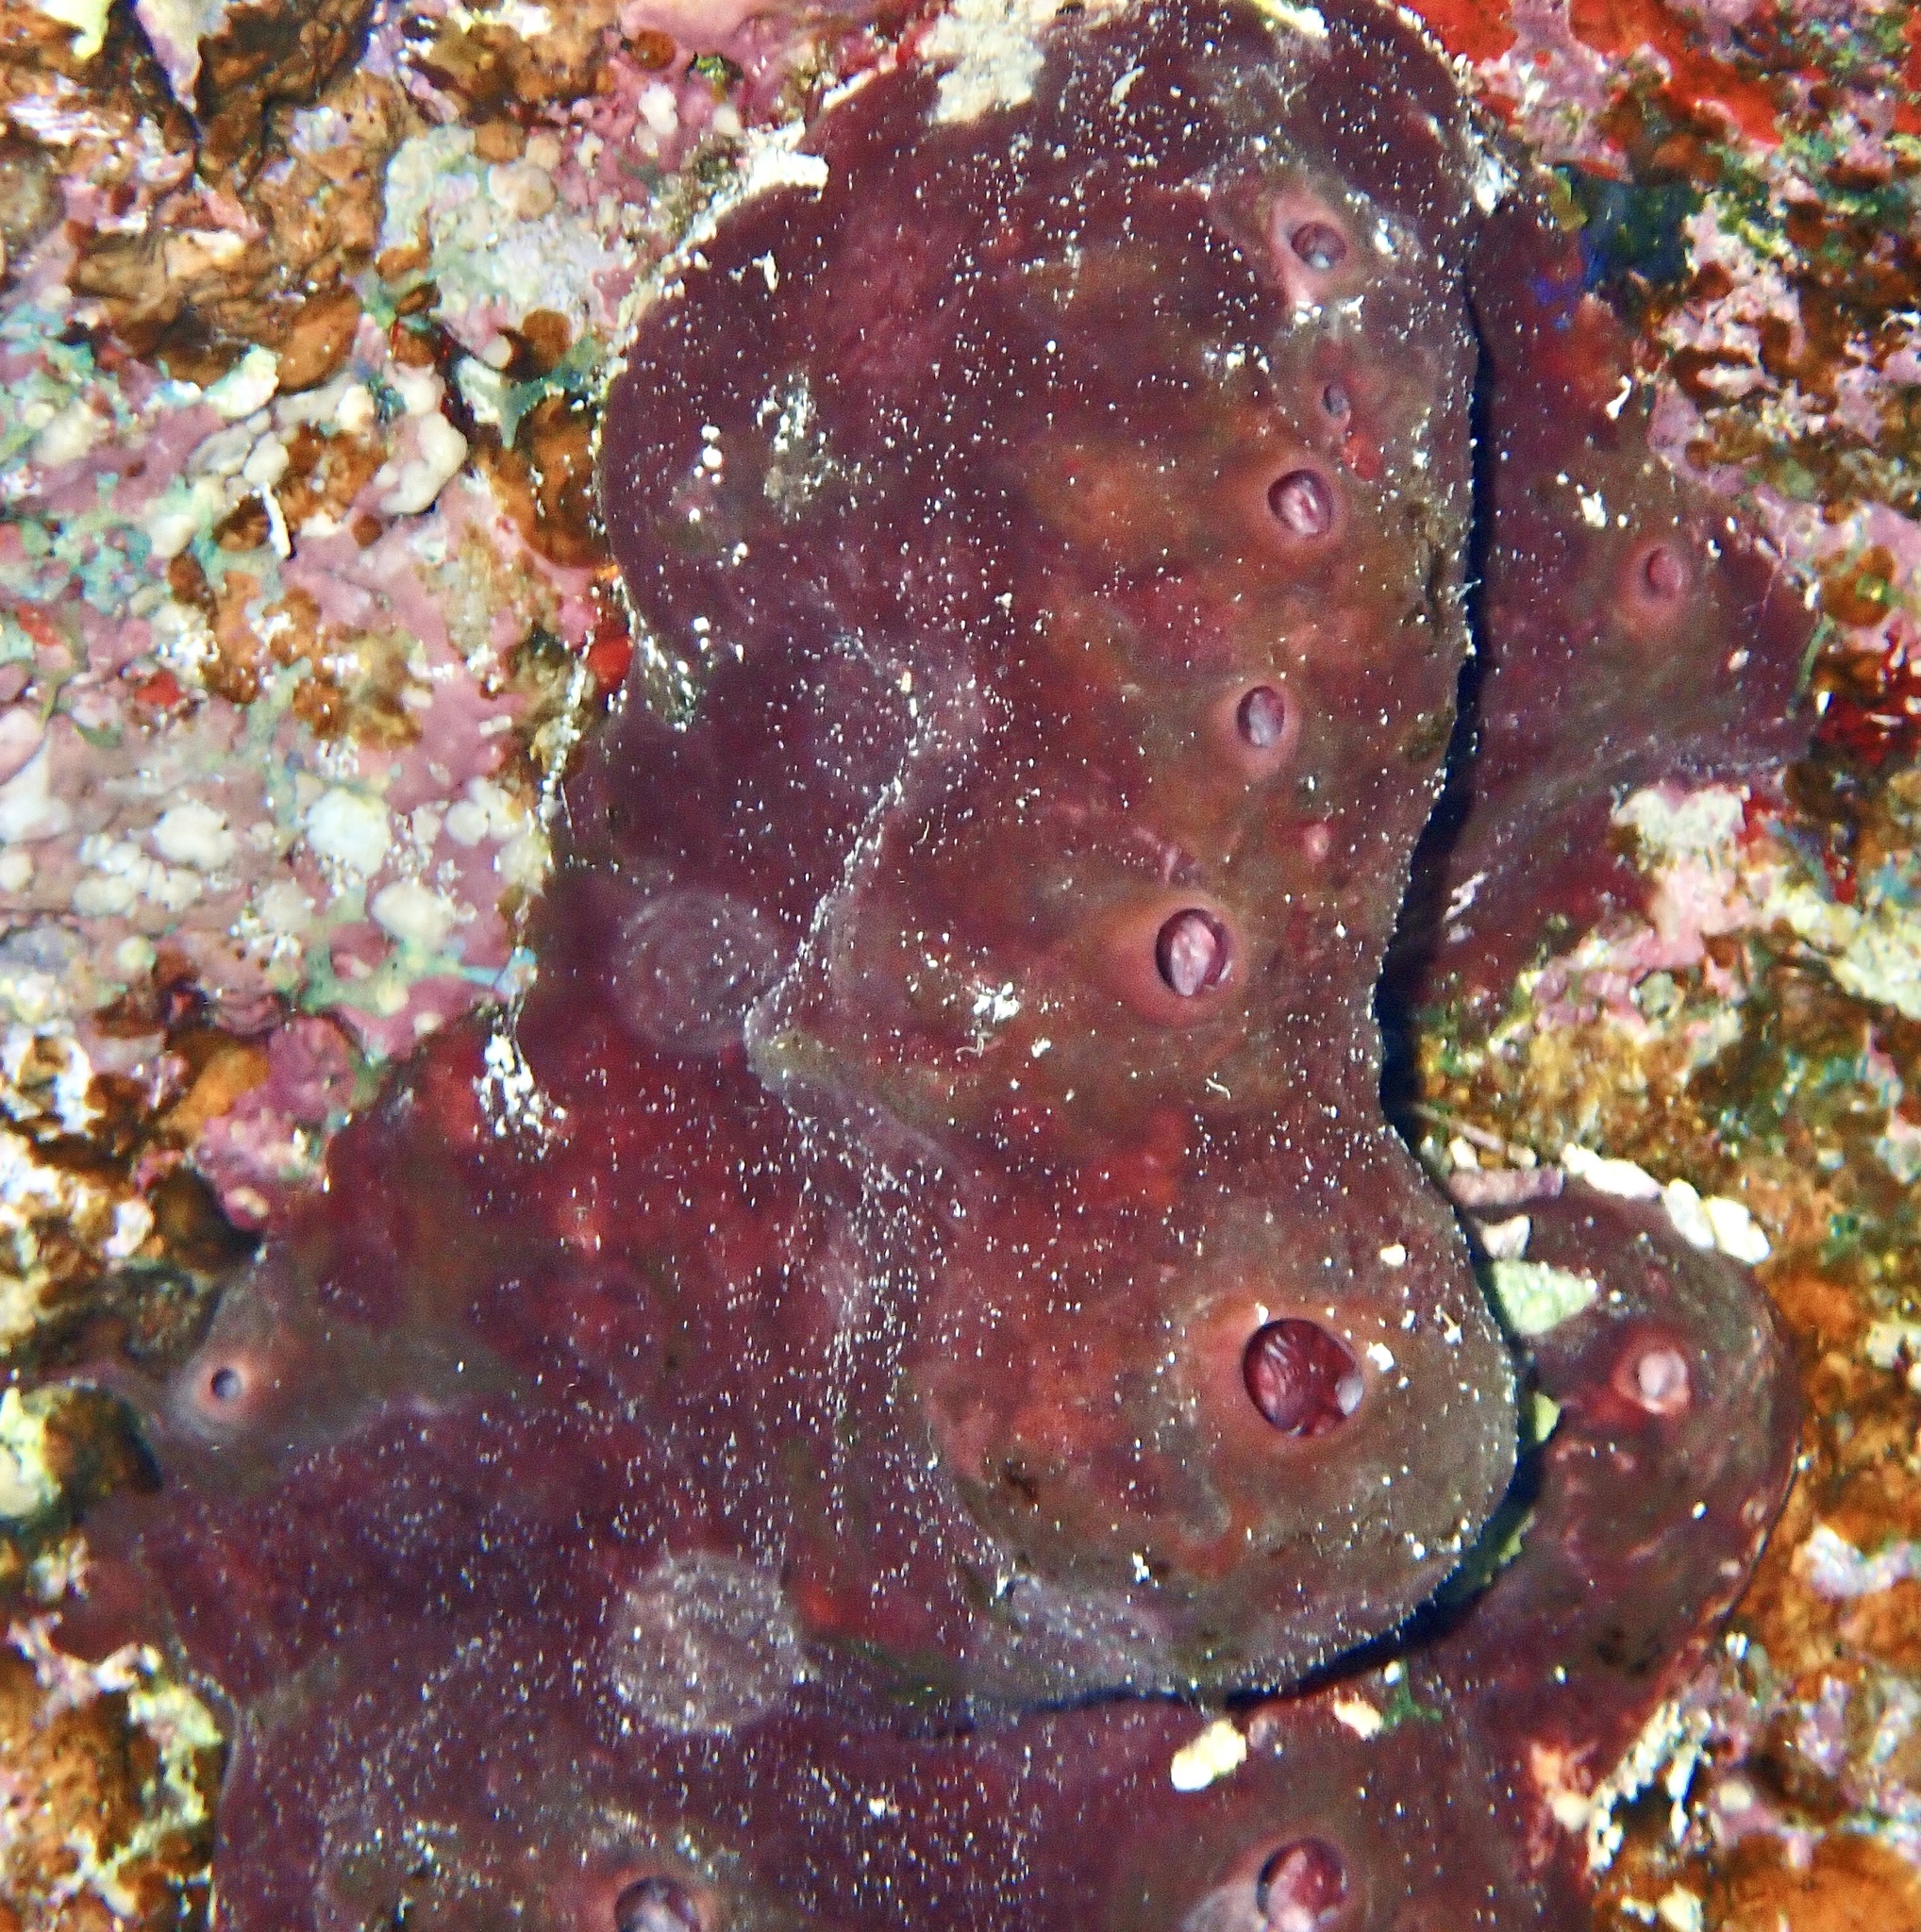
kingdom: Animalia
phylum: Porifera
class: Demospongiae
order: Tetractinellida
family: Theonellidae
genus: Theonella
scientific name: Theonella swinhoei
